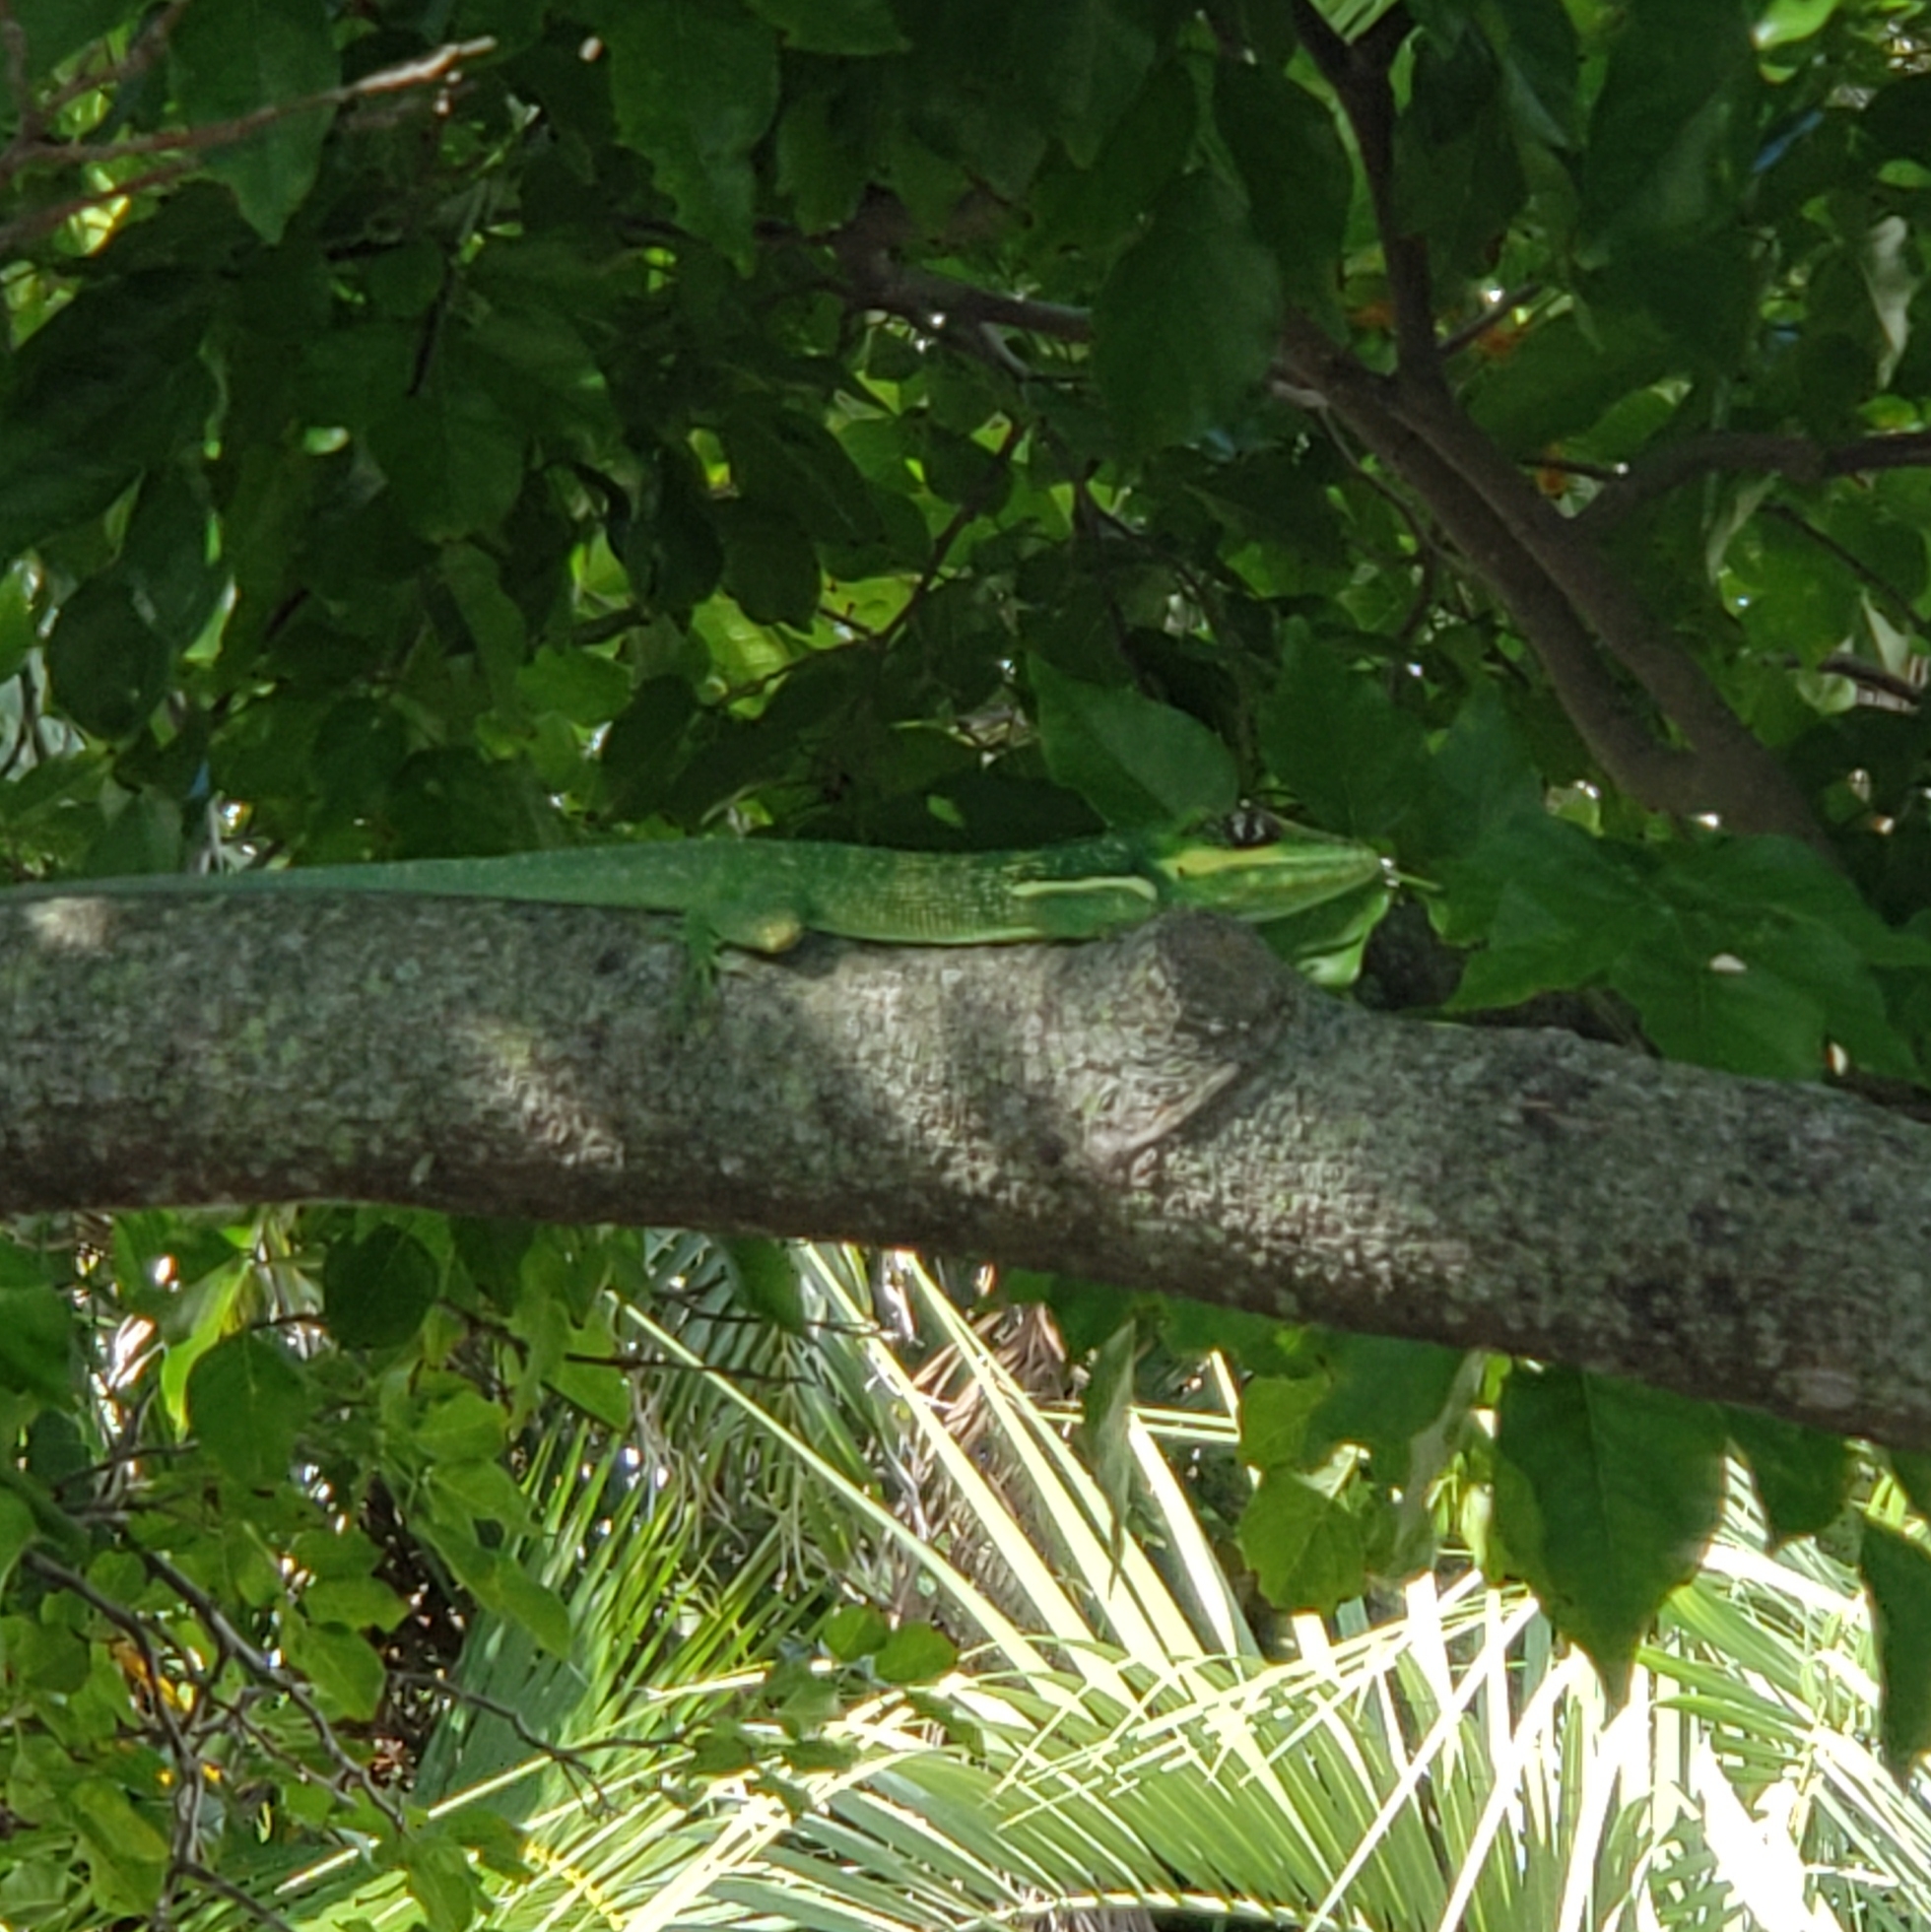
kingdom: Animalia
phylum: Chordata
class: Squamata
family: Dactyloidae
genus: Anolis
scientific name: Anolis equestris
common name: Knight anole
